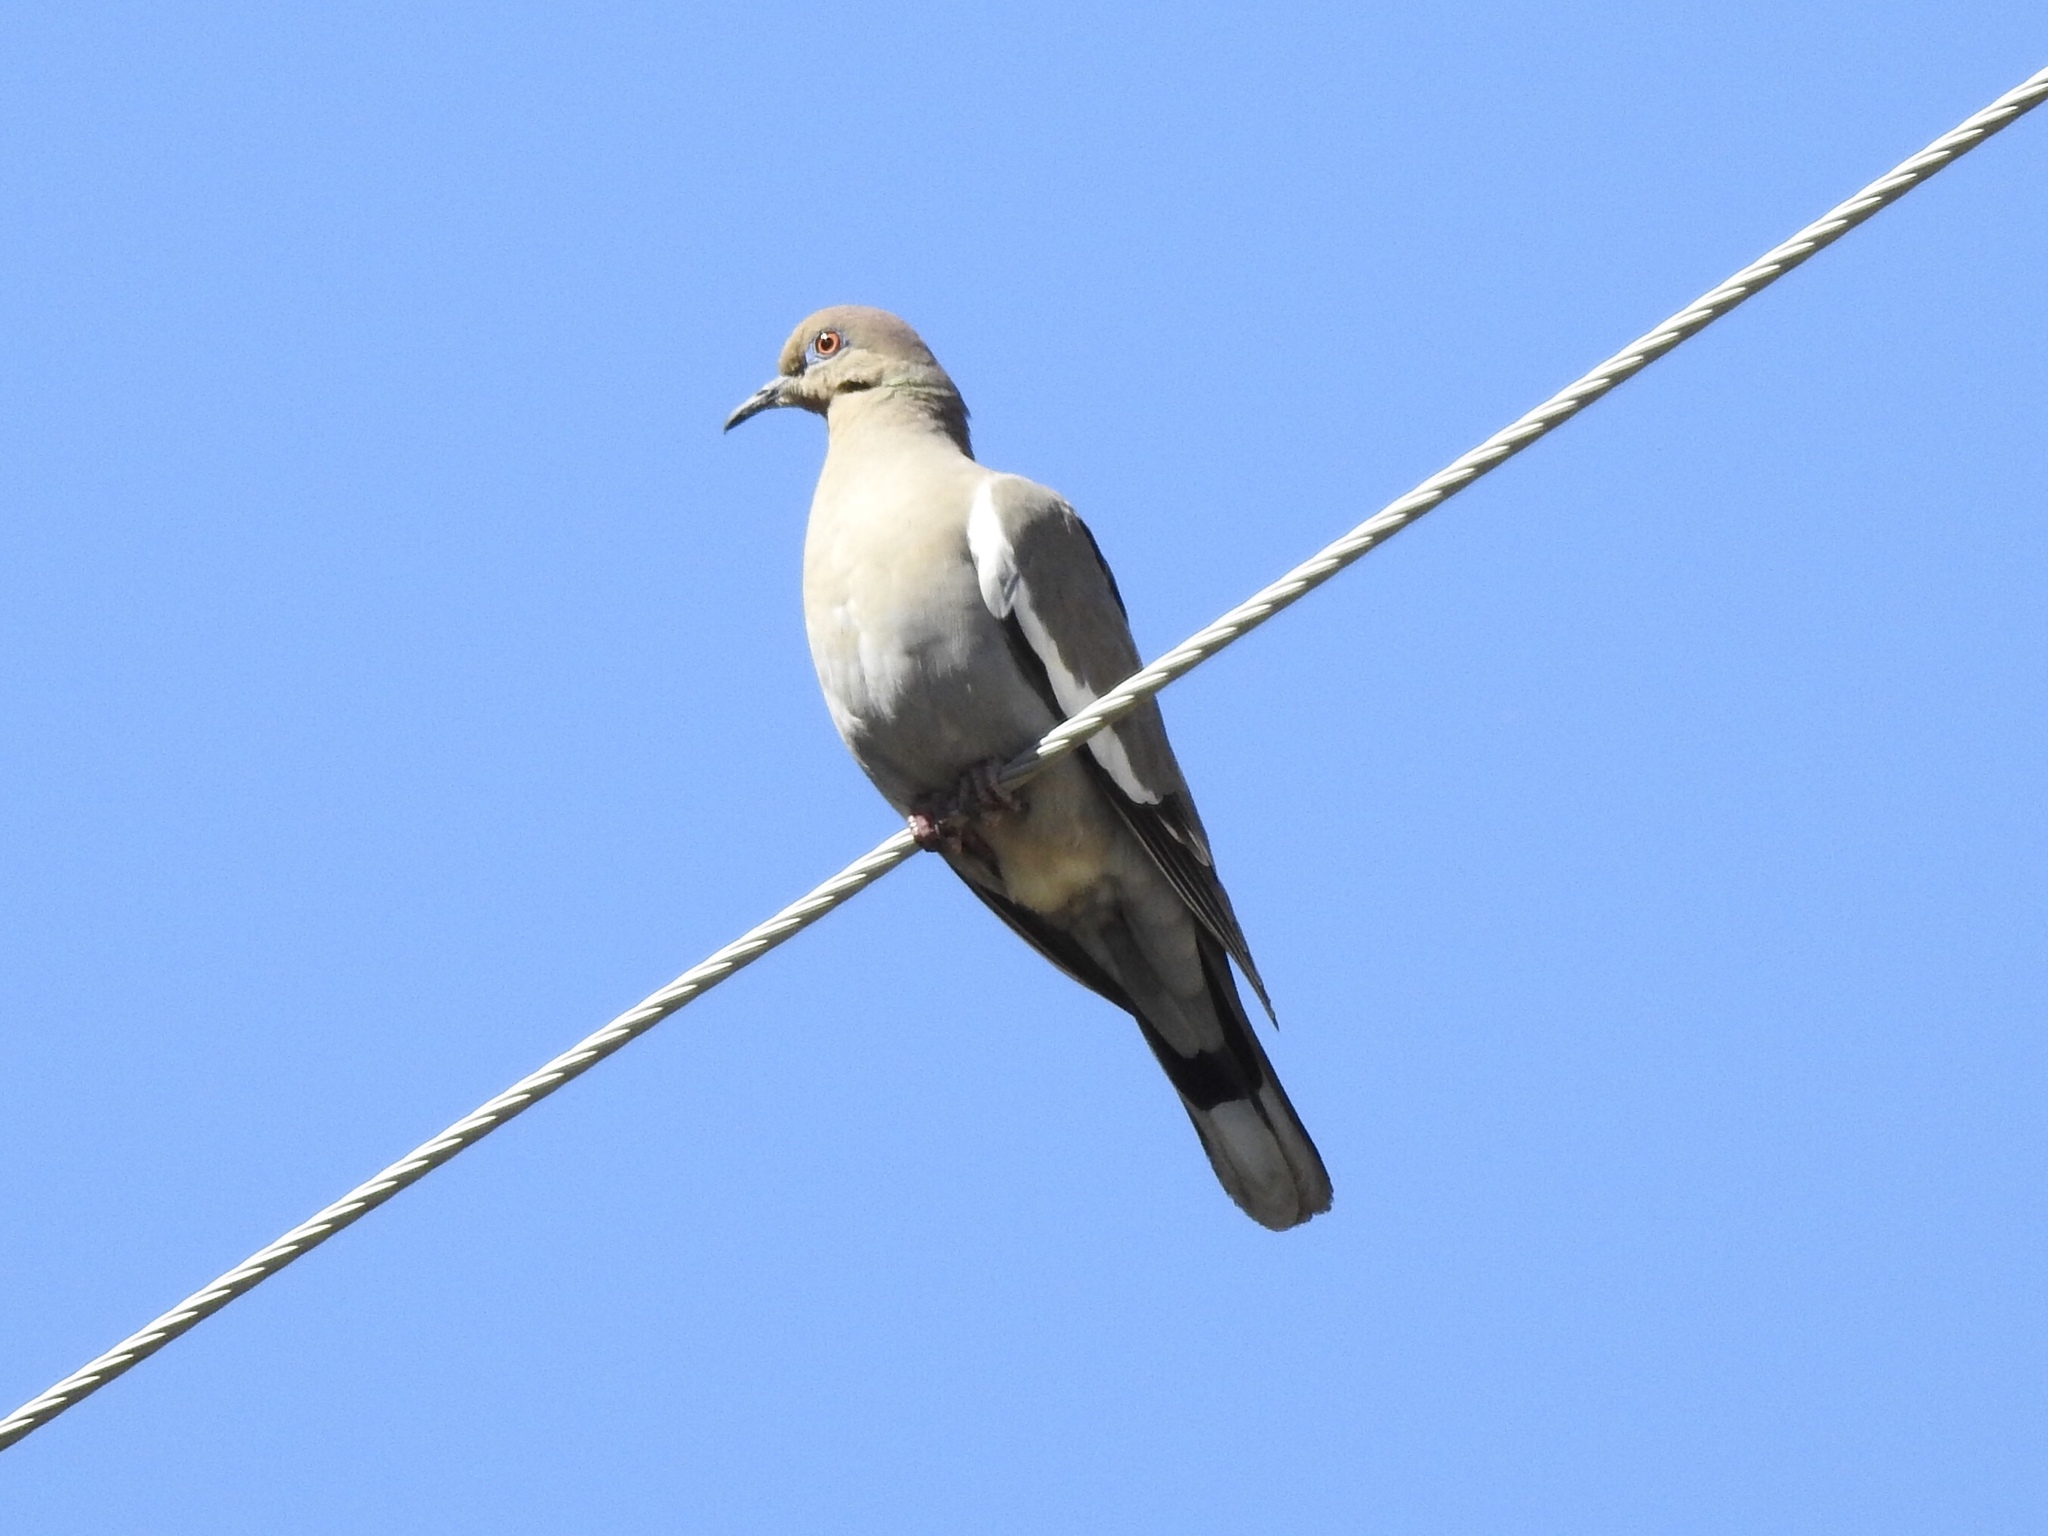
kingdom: Animalia
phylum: Chordata
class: Aves
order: Columbiformes
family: Columbidae
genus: Zenaida
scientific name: Zenaida asiatica
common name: White-winged dove
